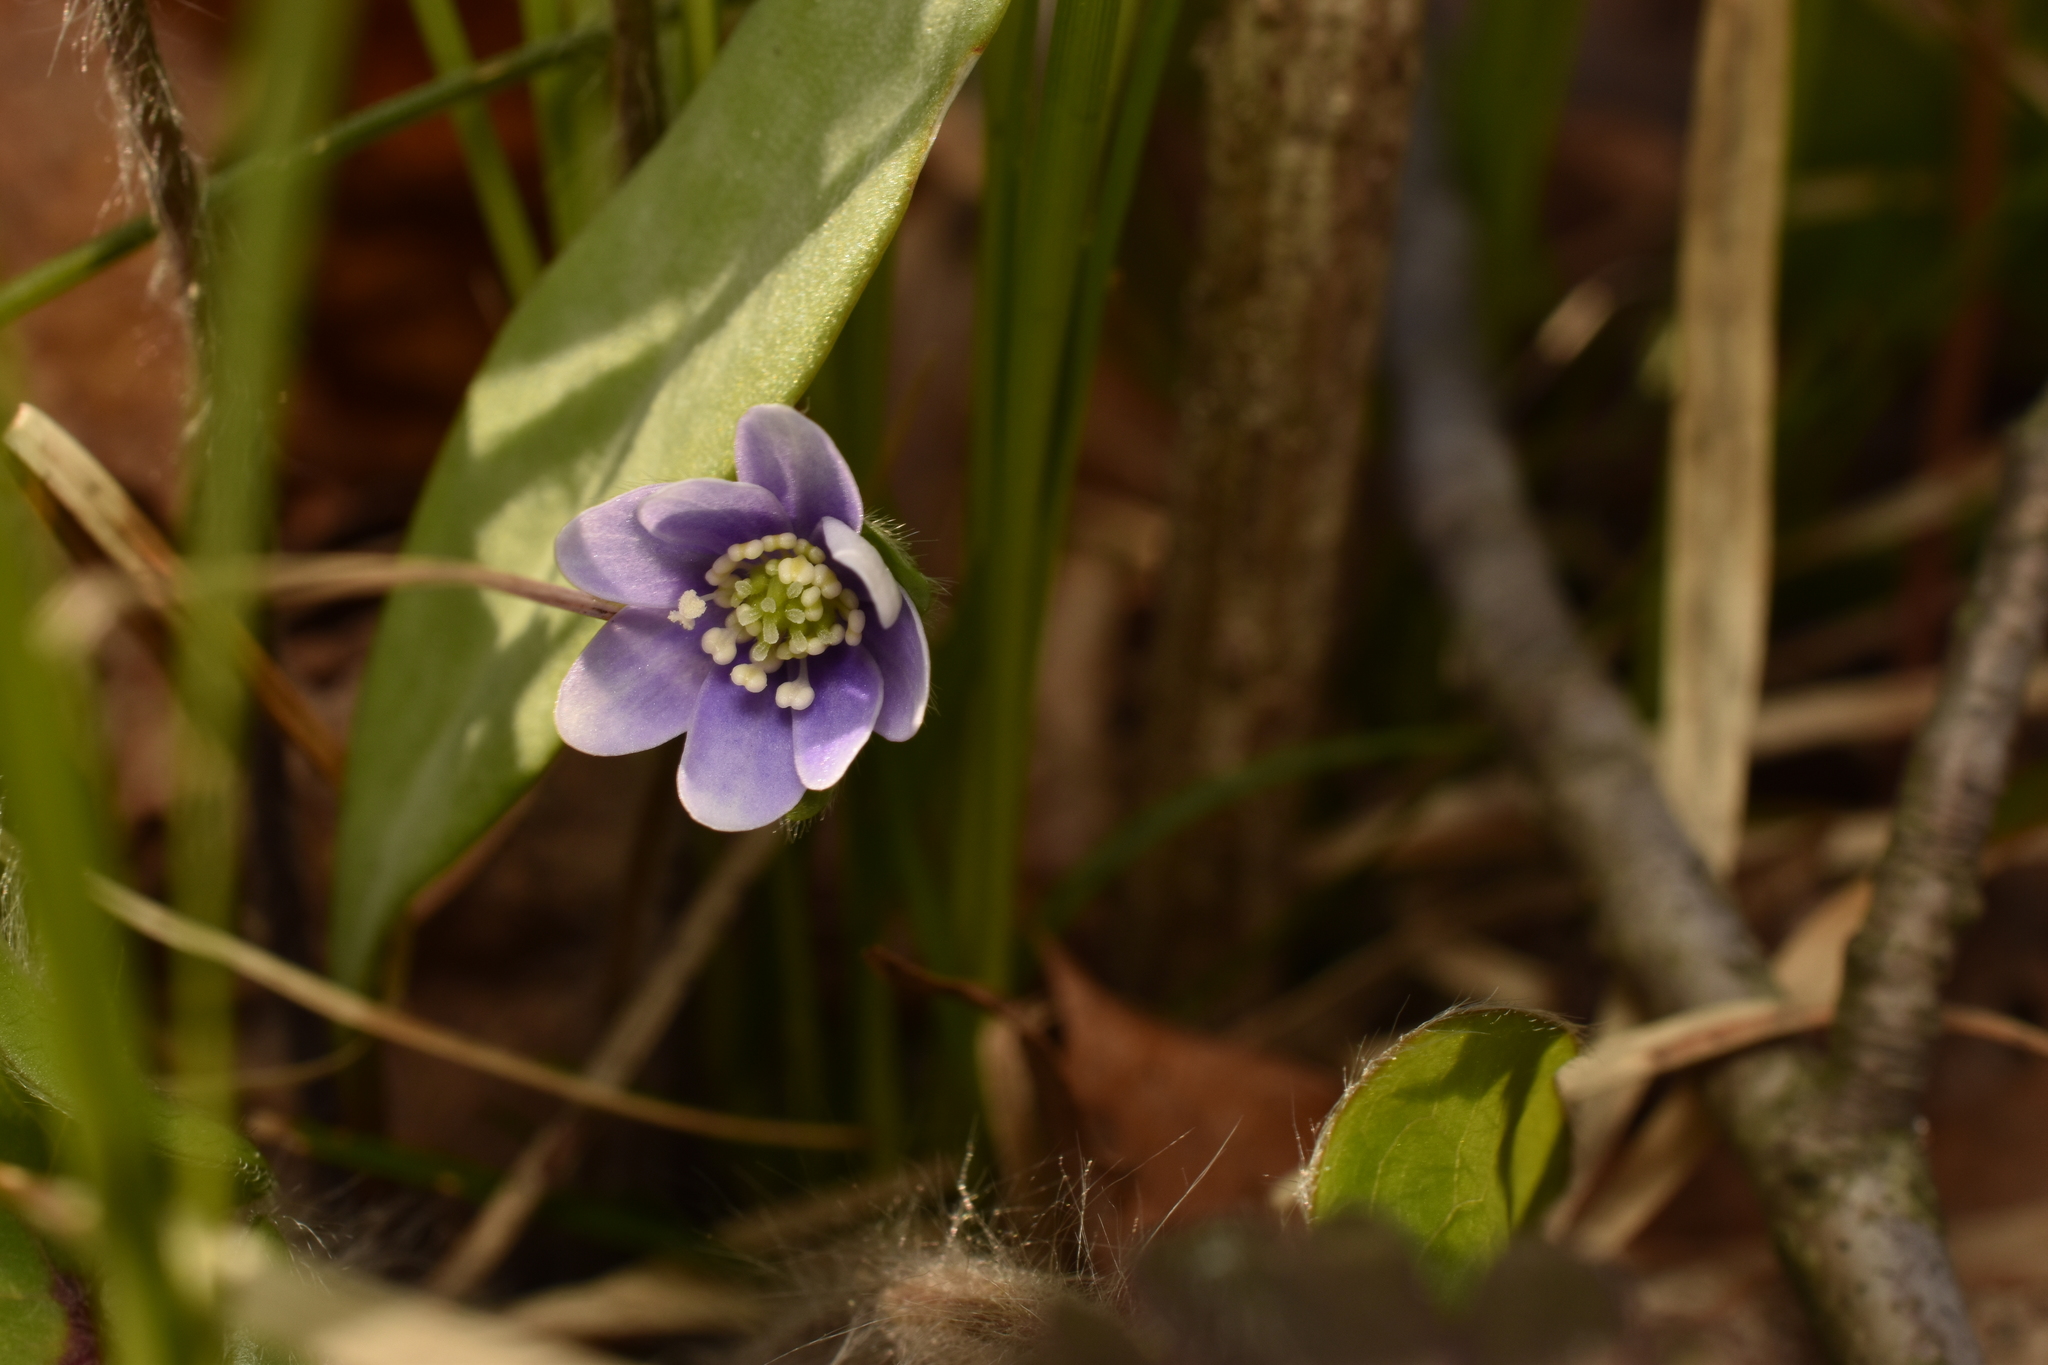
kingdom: Plantae
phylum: Tracheophyta
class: Magnoliopsida
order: Ranunculales
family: Ranunculaceae
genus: Hepatica
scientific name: Hepatica acutiloba
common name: Sharp-lobed hepatica
